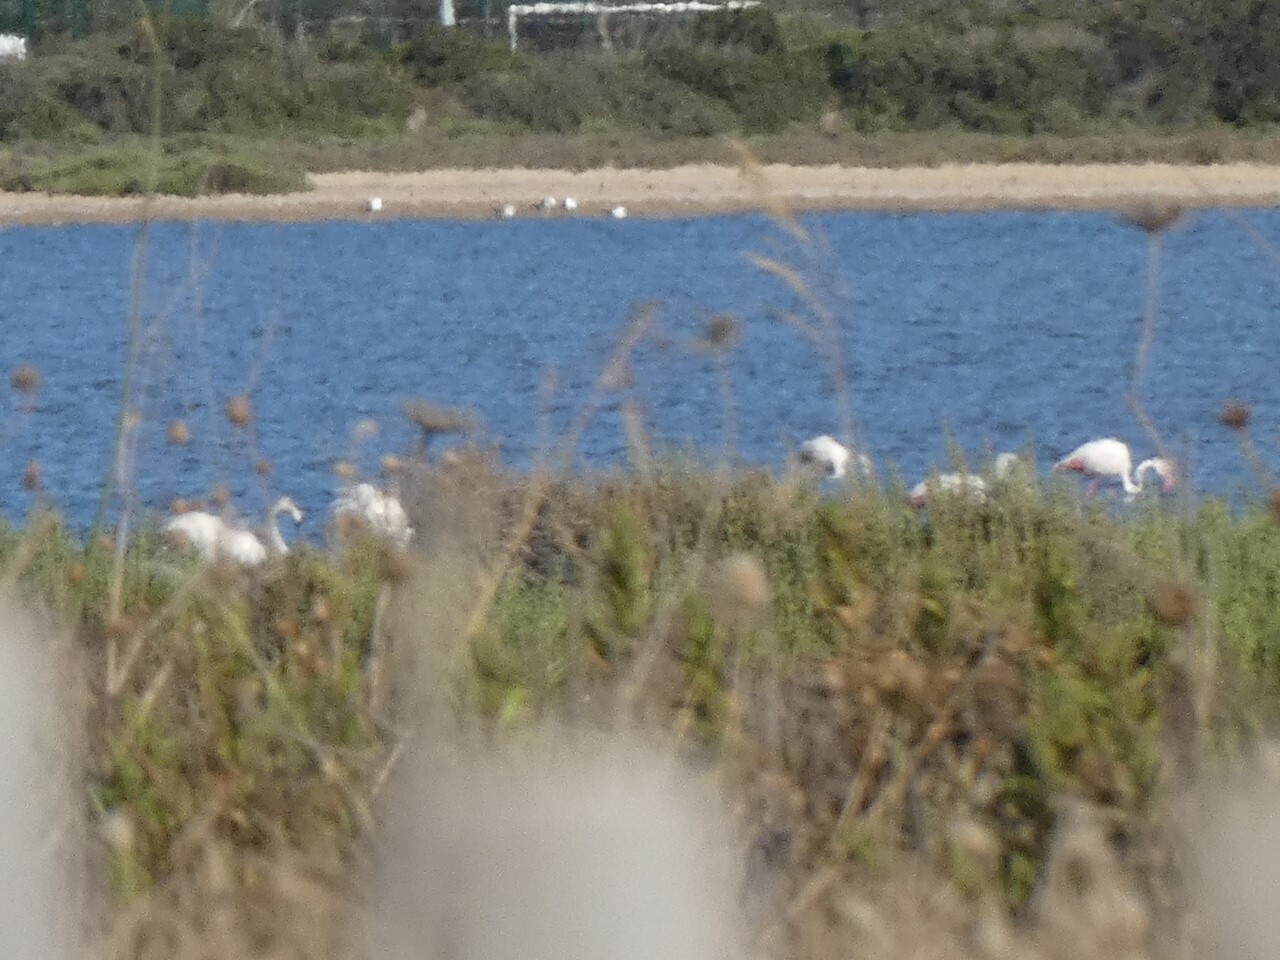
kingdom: Animalia
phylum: Chordata
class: Aves
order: Phoenicopteriformes
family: Phoenicopteridae
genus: Phoenicopterus
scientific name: Phoenicopterus roseus
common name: Greater flamingo
